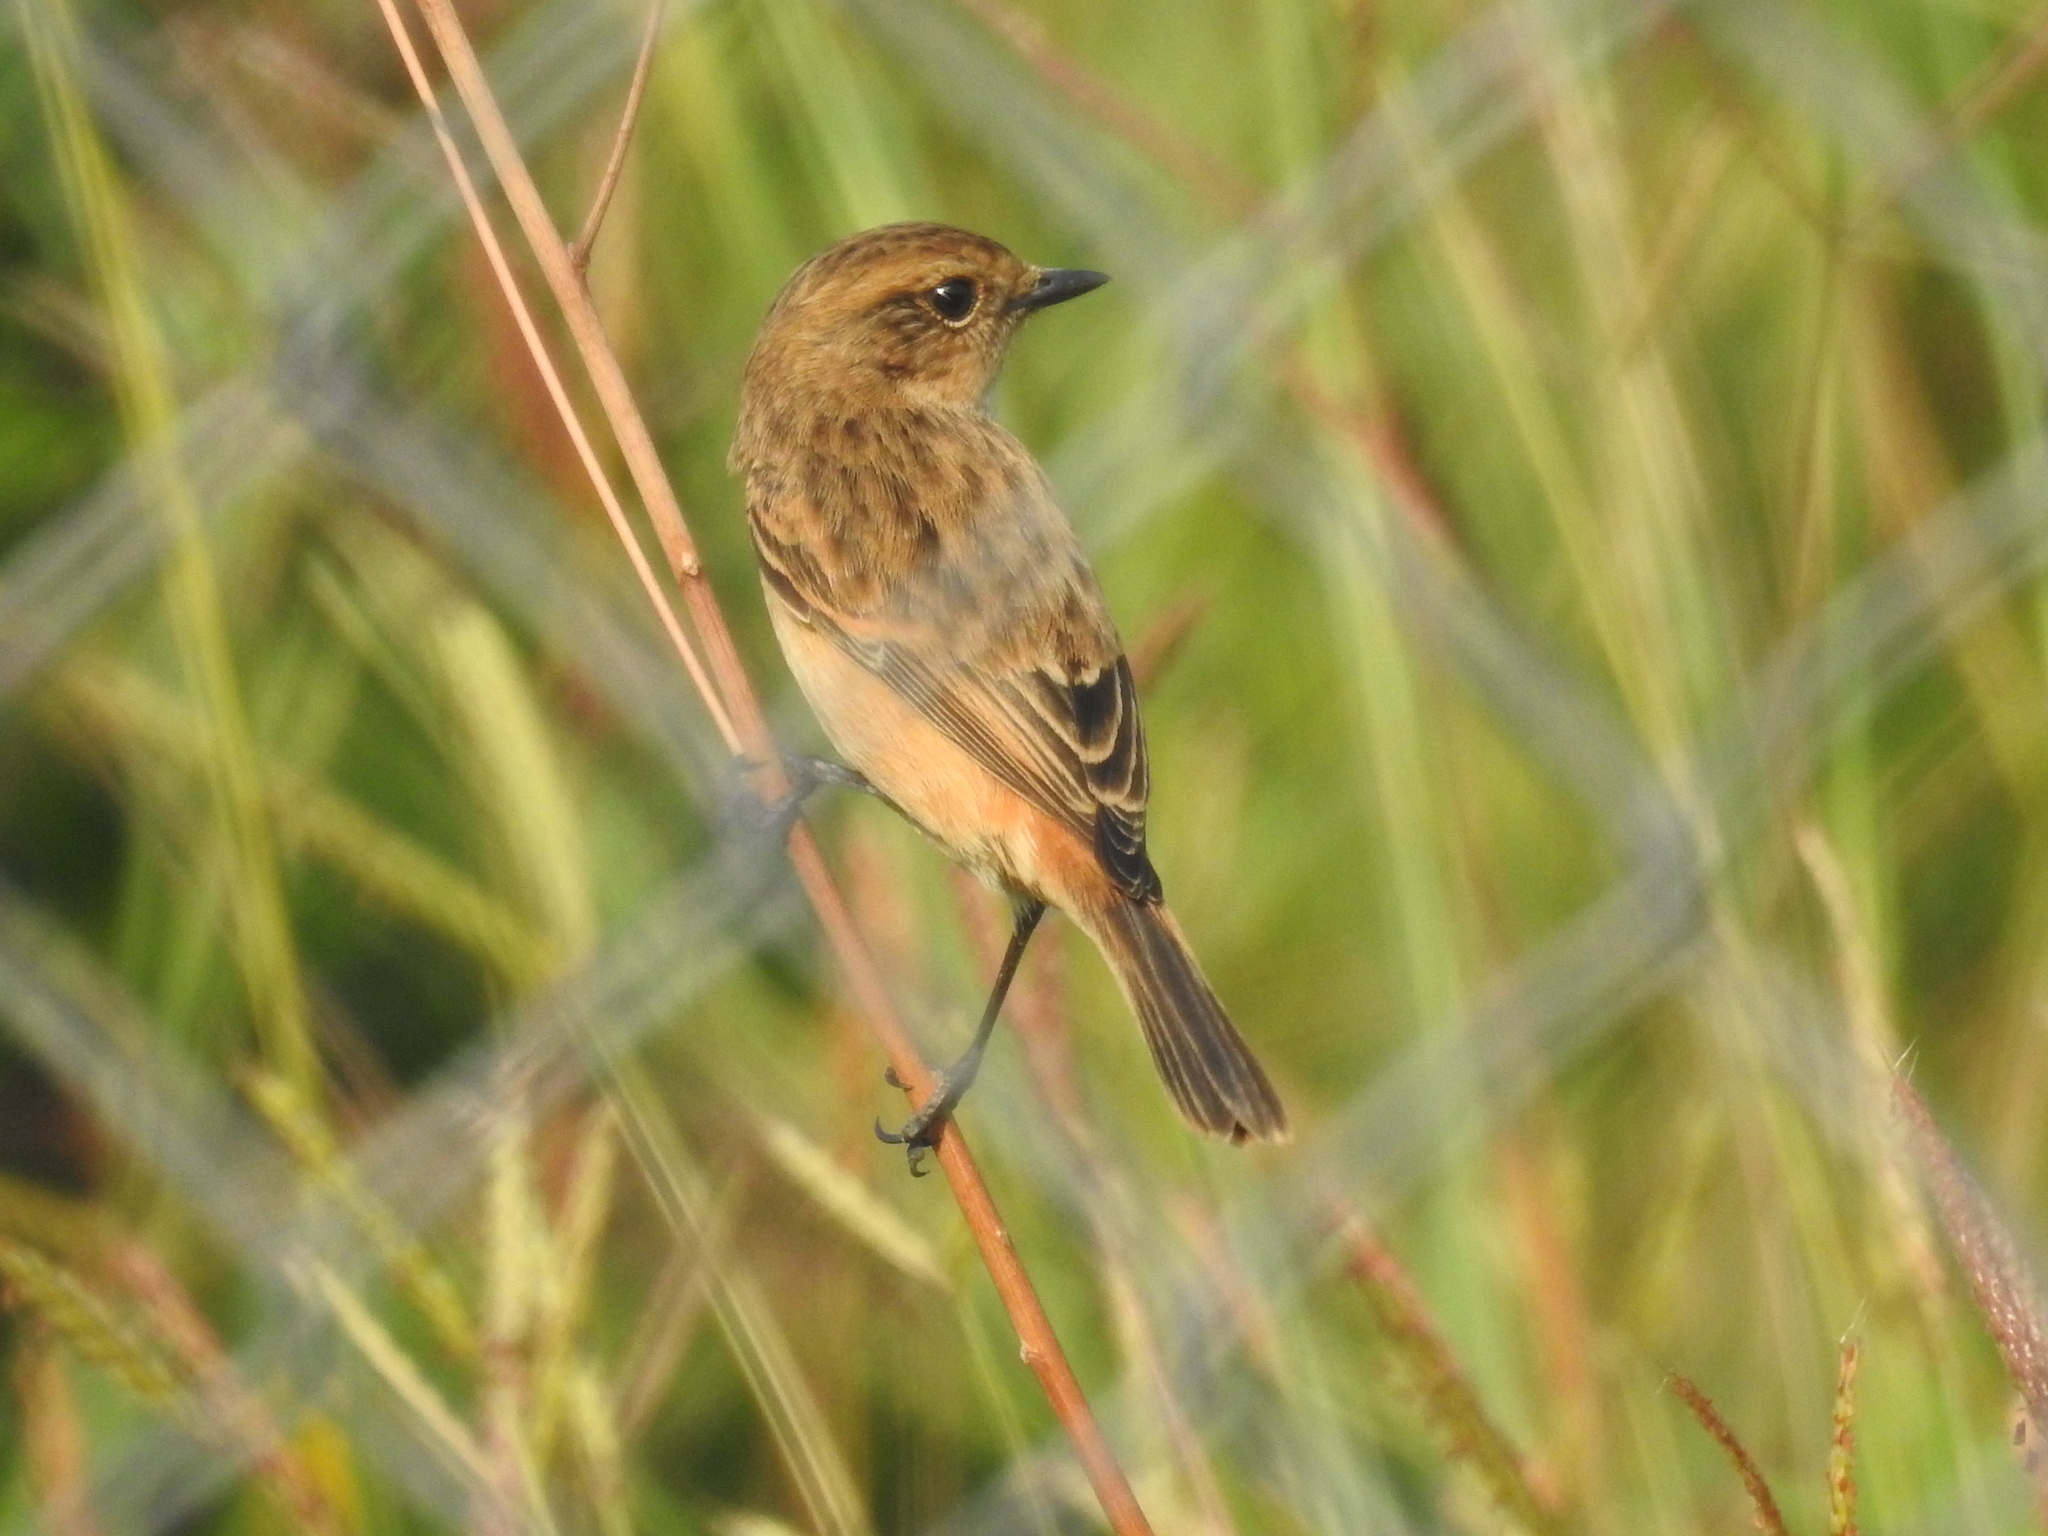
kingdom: Animalia
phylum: Chordata
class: Aves
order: Passeriformes
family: Muscicapidae
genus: Saxicola
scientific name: Saxicola stejnegeri
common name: Stejneger's stonechat
